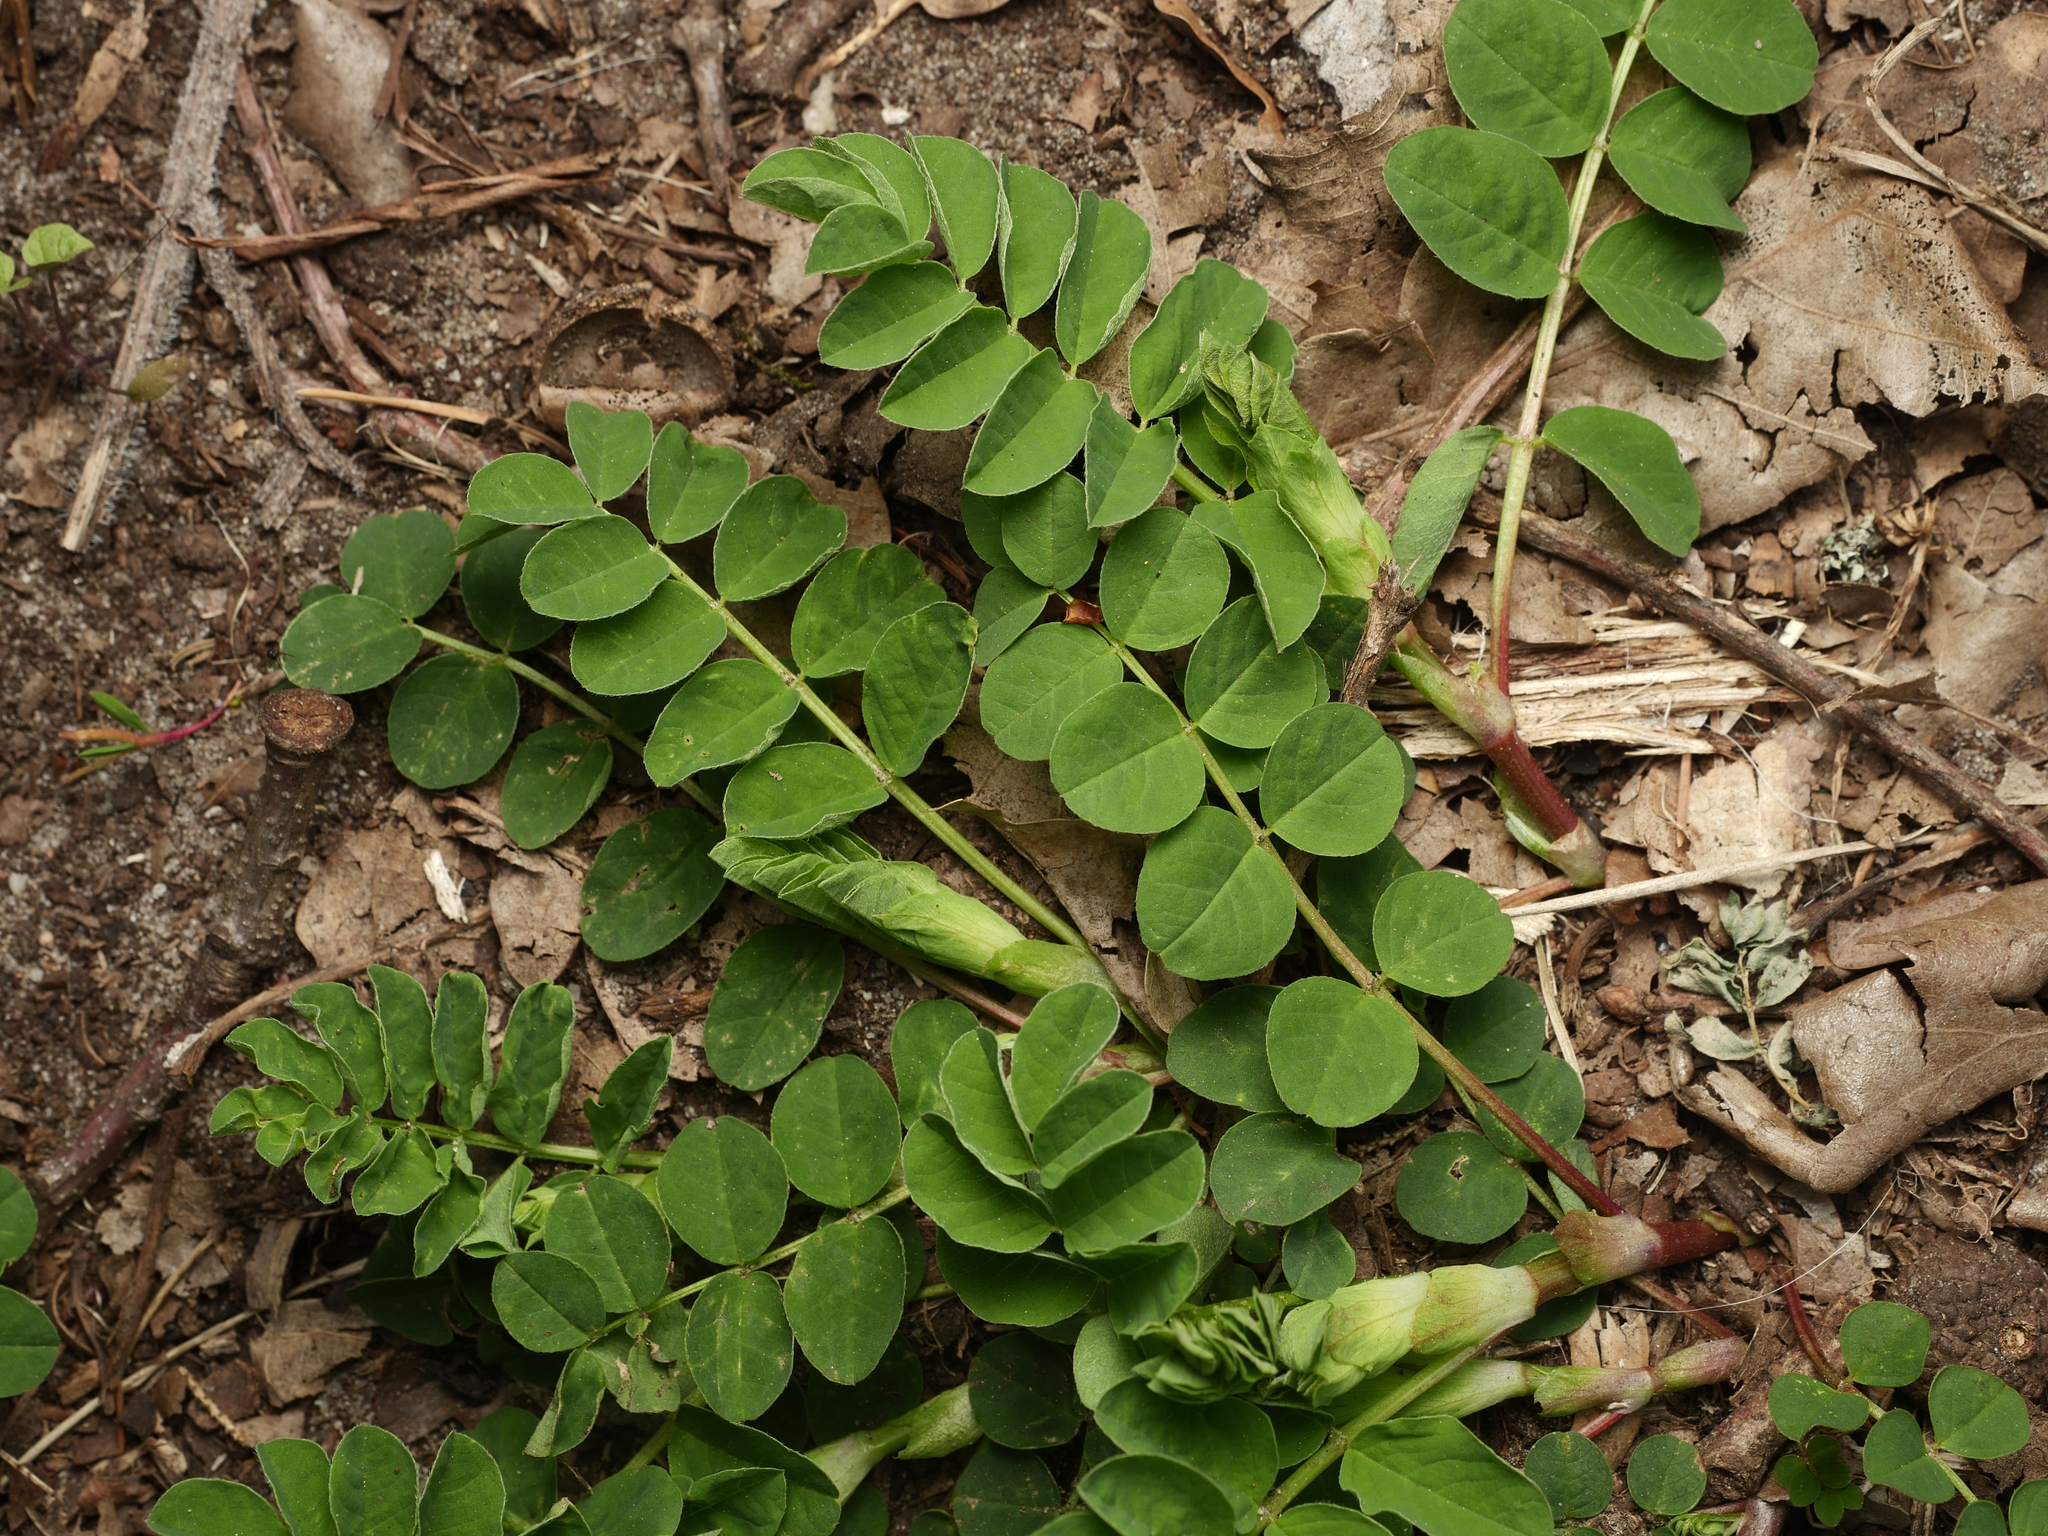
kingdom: Plantae
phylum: Tracheophyta
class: Magnoliopsida
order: Fabales
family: Fabaceae
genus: Astragalus
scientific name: Astragalus glycyphyllos
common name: Wild liquorice
